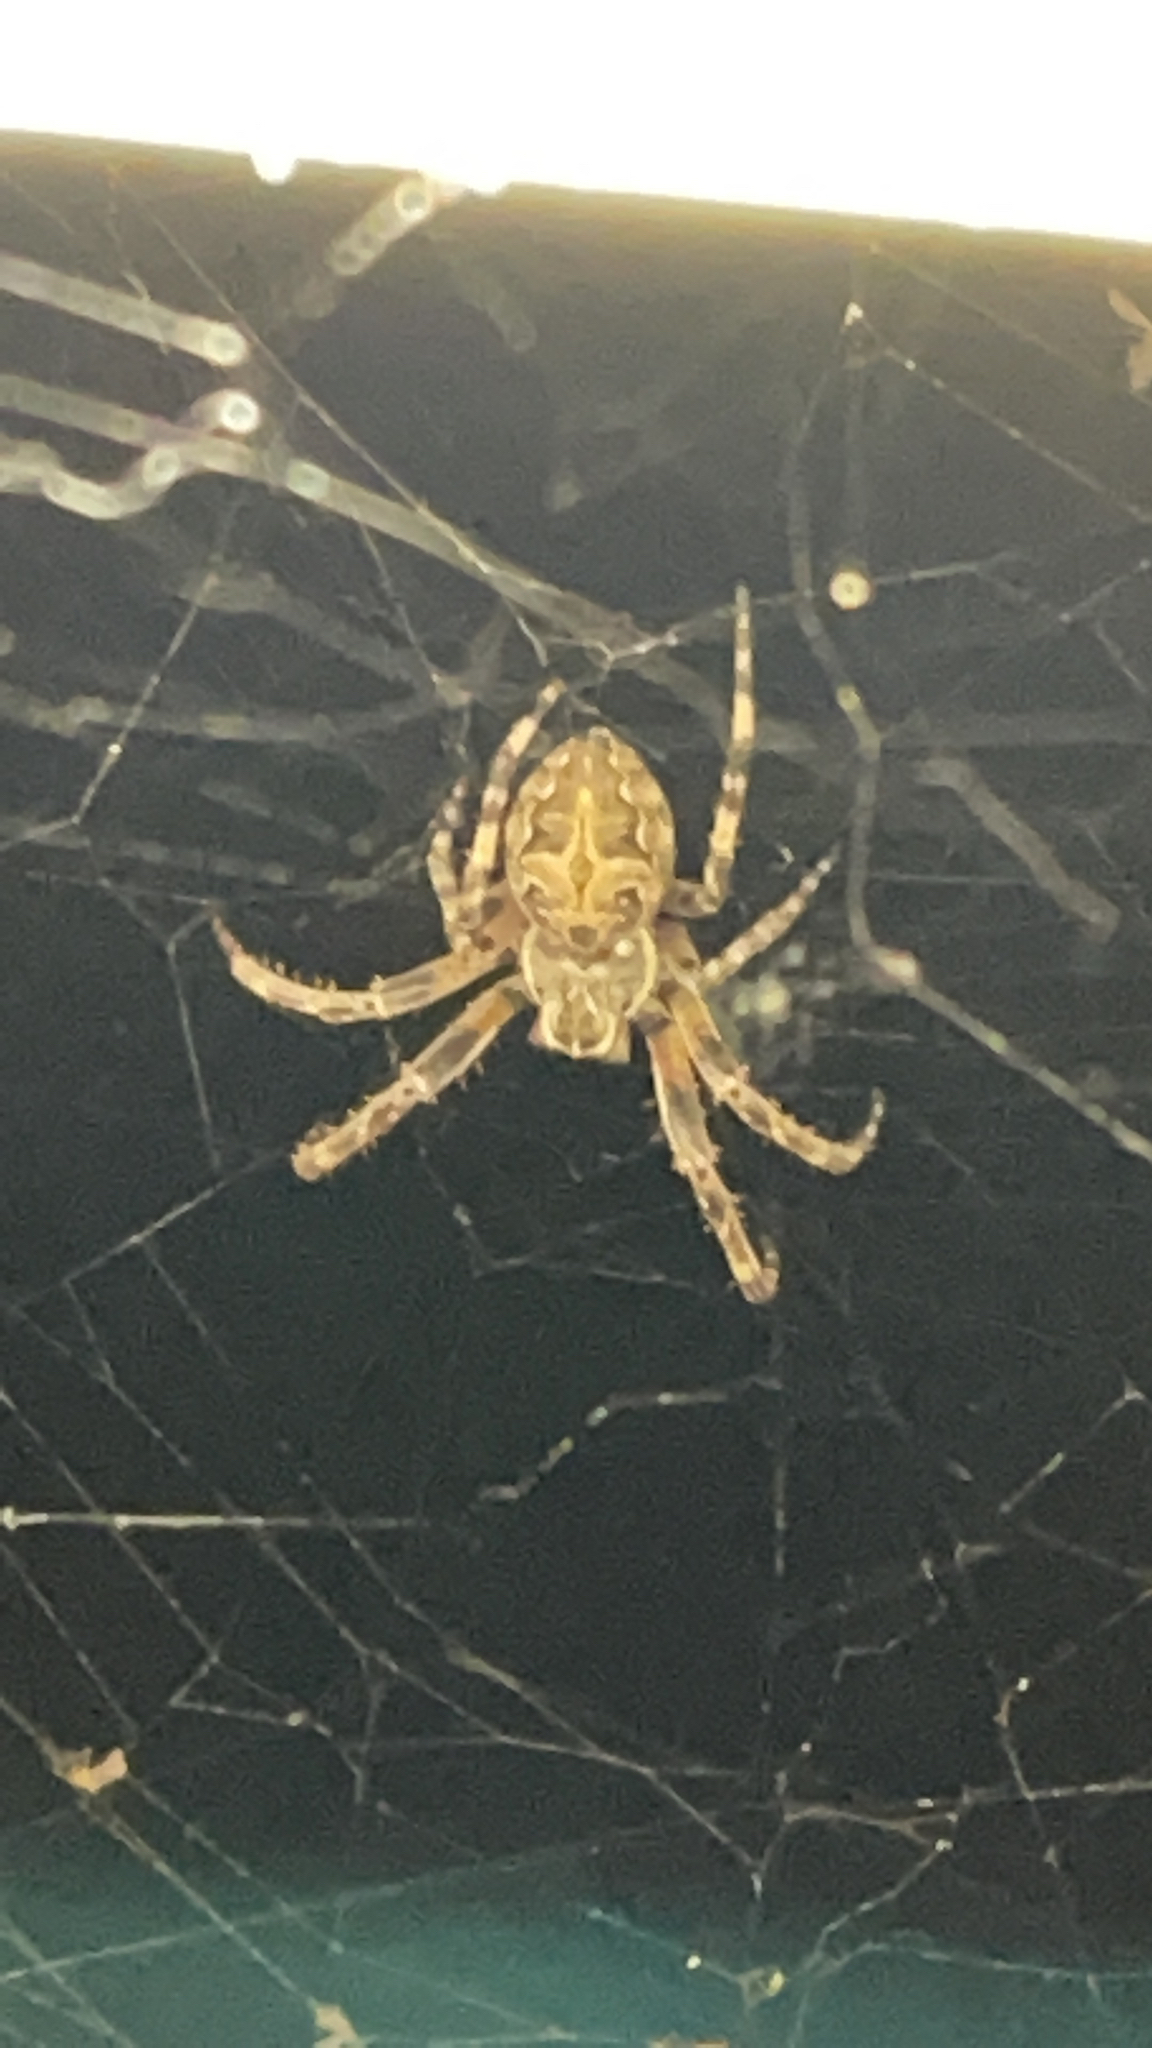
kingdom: Animalia
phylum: Arthropoda
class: Arachnida
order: Araneae
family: Araneidae
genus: Larinioides
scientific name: Larinioides sclopetarius
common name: Bridge orbweaver
